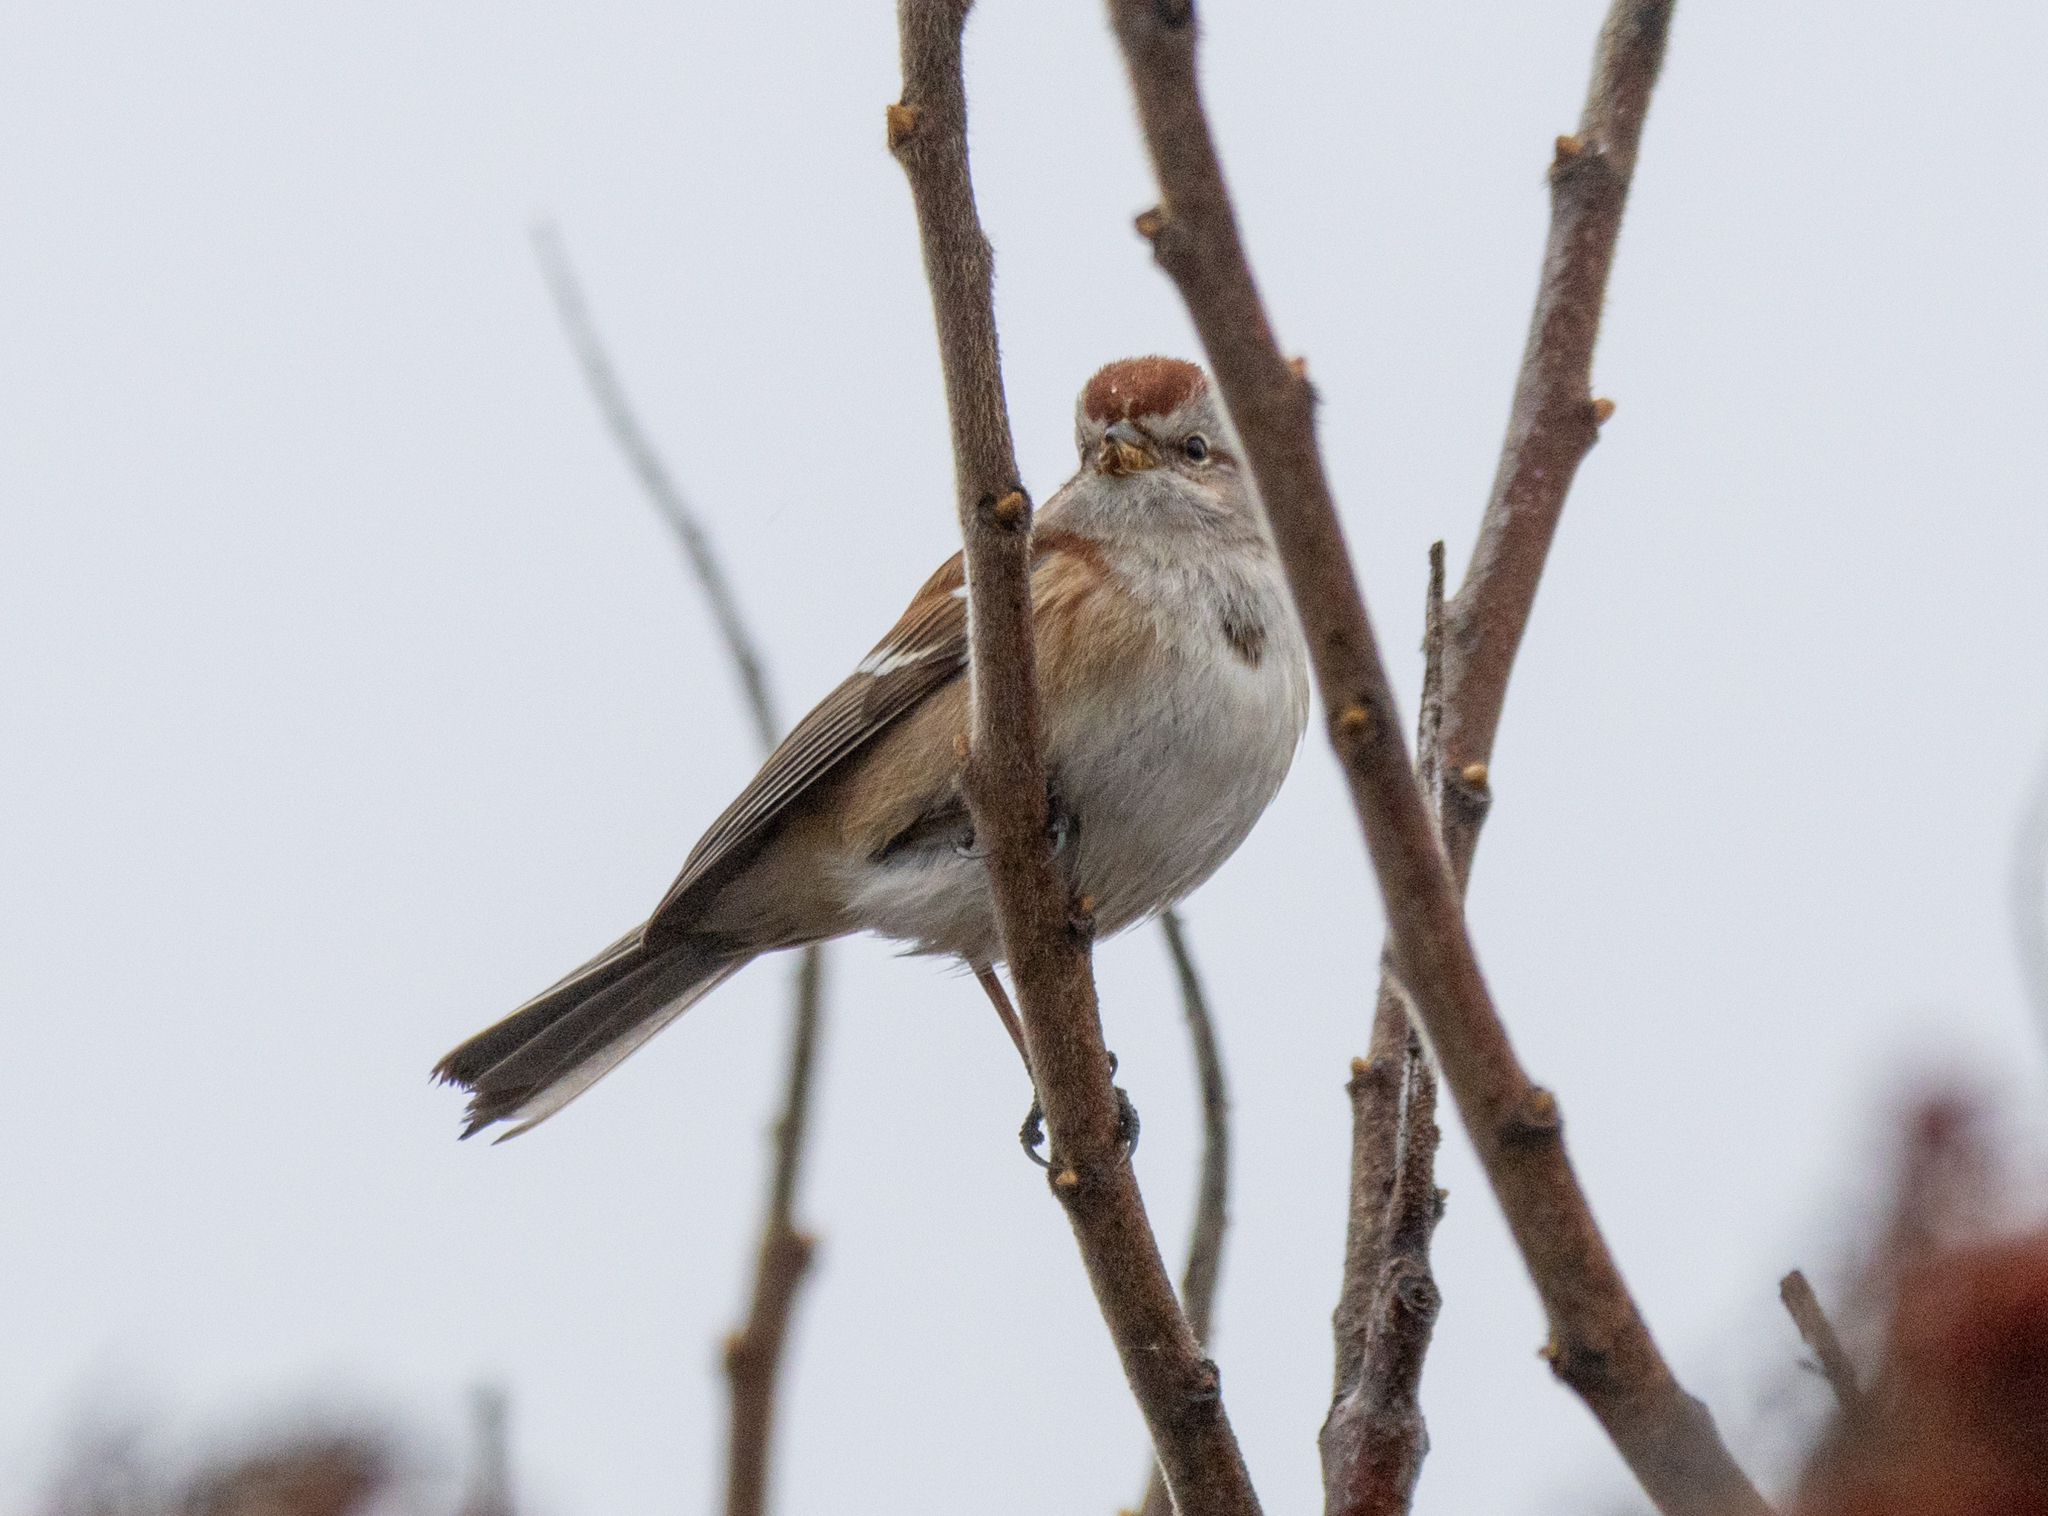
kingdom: Animalia
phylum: Chordata
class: Aves
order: Passeriformes
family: Passerellidae
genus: Spizelloides
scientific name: Spizelloides arborea
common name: American tree sparrow
